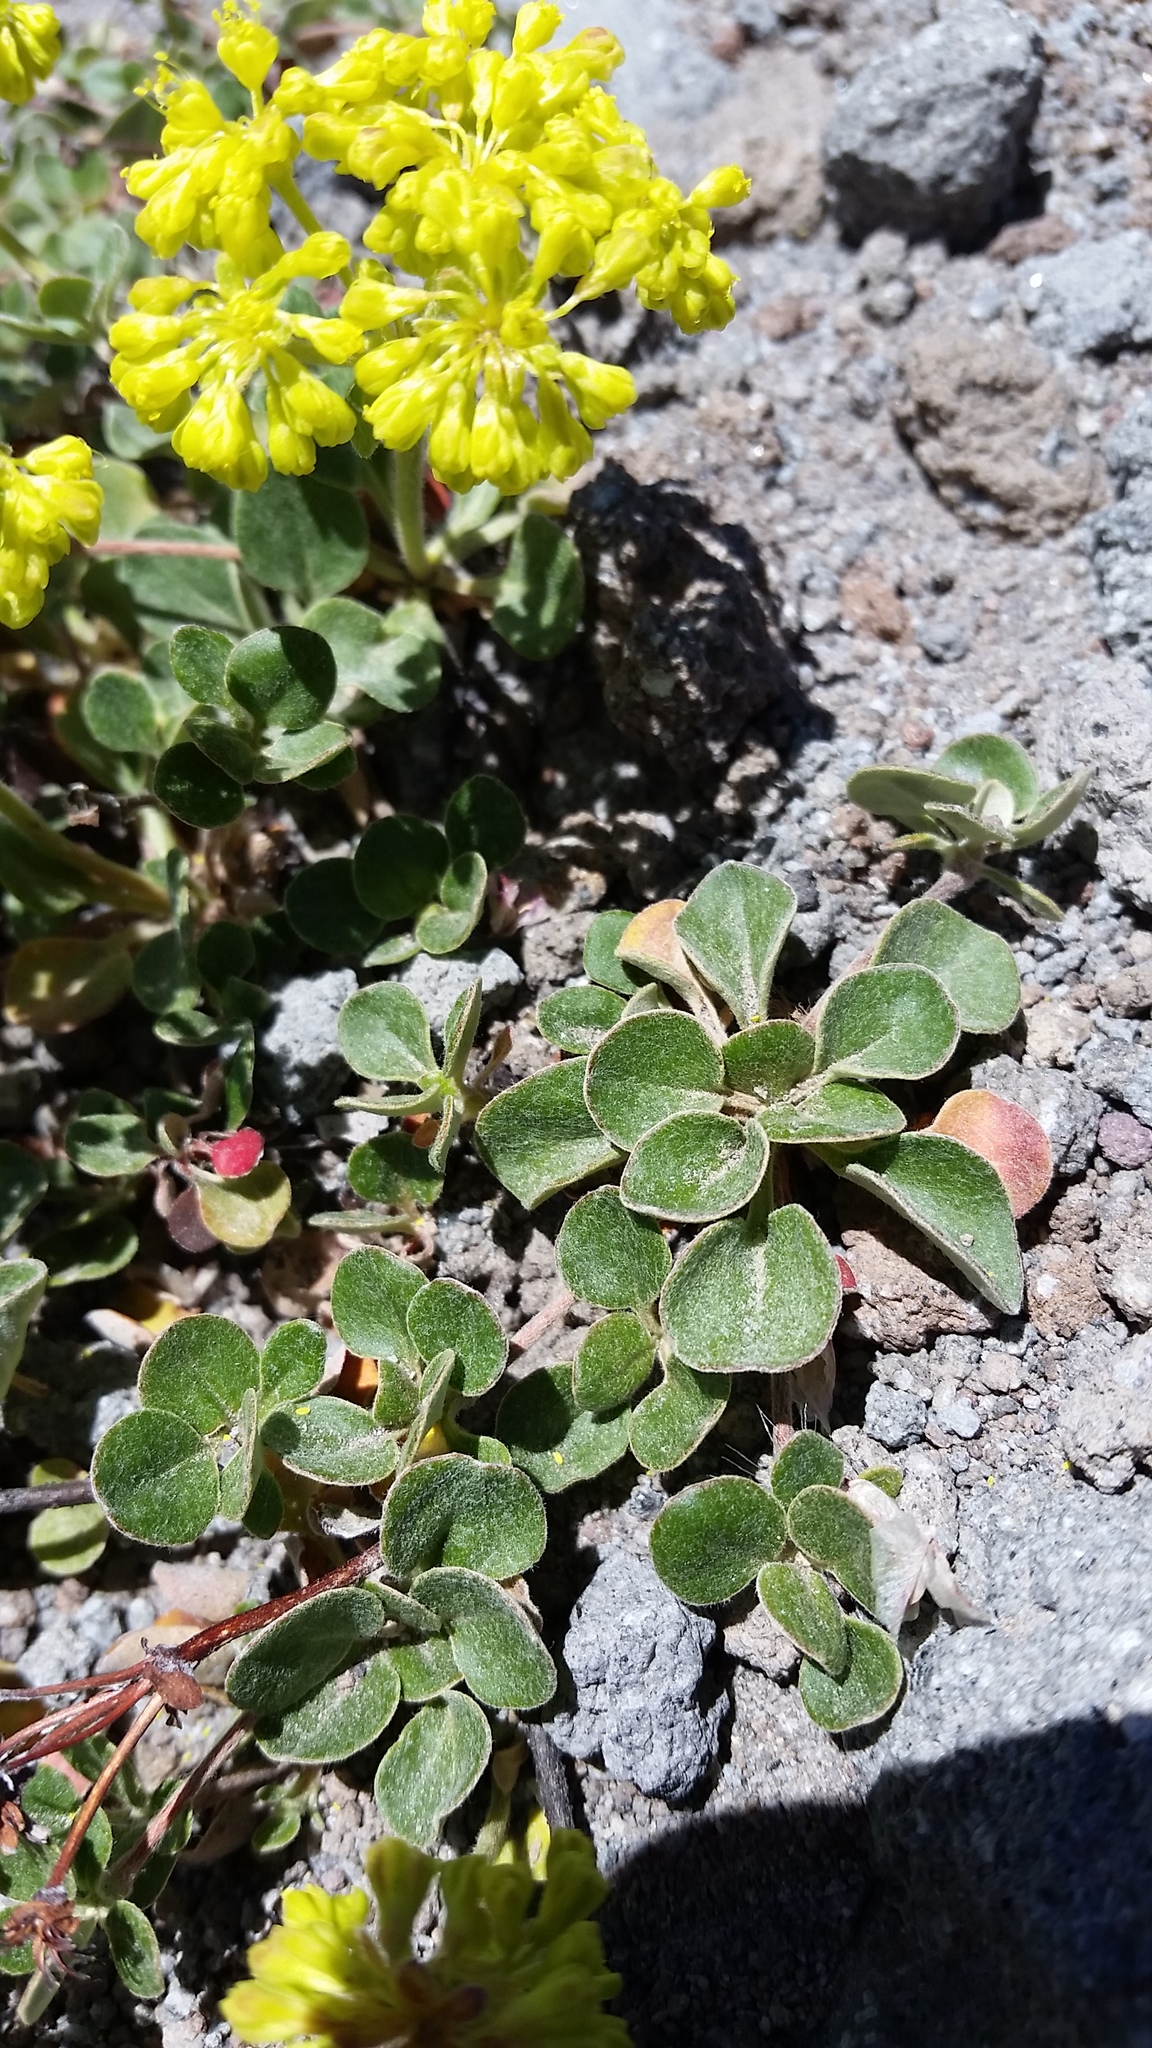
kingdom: Plantae
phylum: Tracheophyta
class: Magnoliopsida
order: Caryophyllales
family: Polygonaceae
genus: Eriogonum
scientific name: Eriogonum umbellatum
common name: Sulfur-buckwheat
